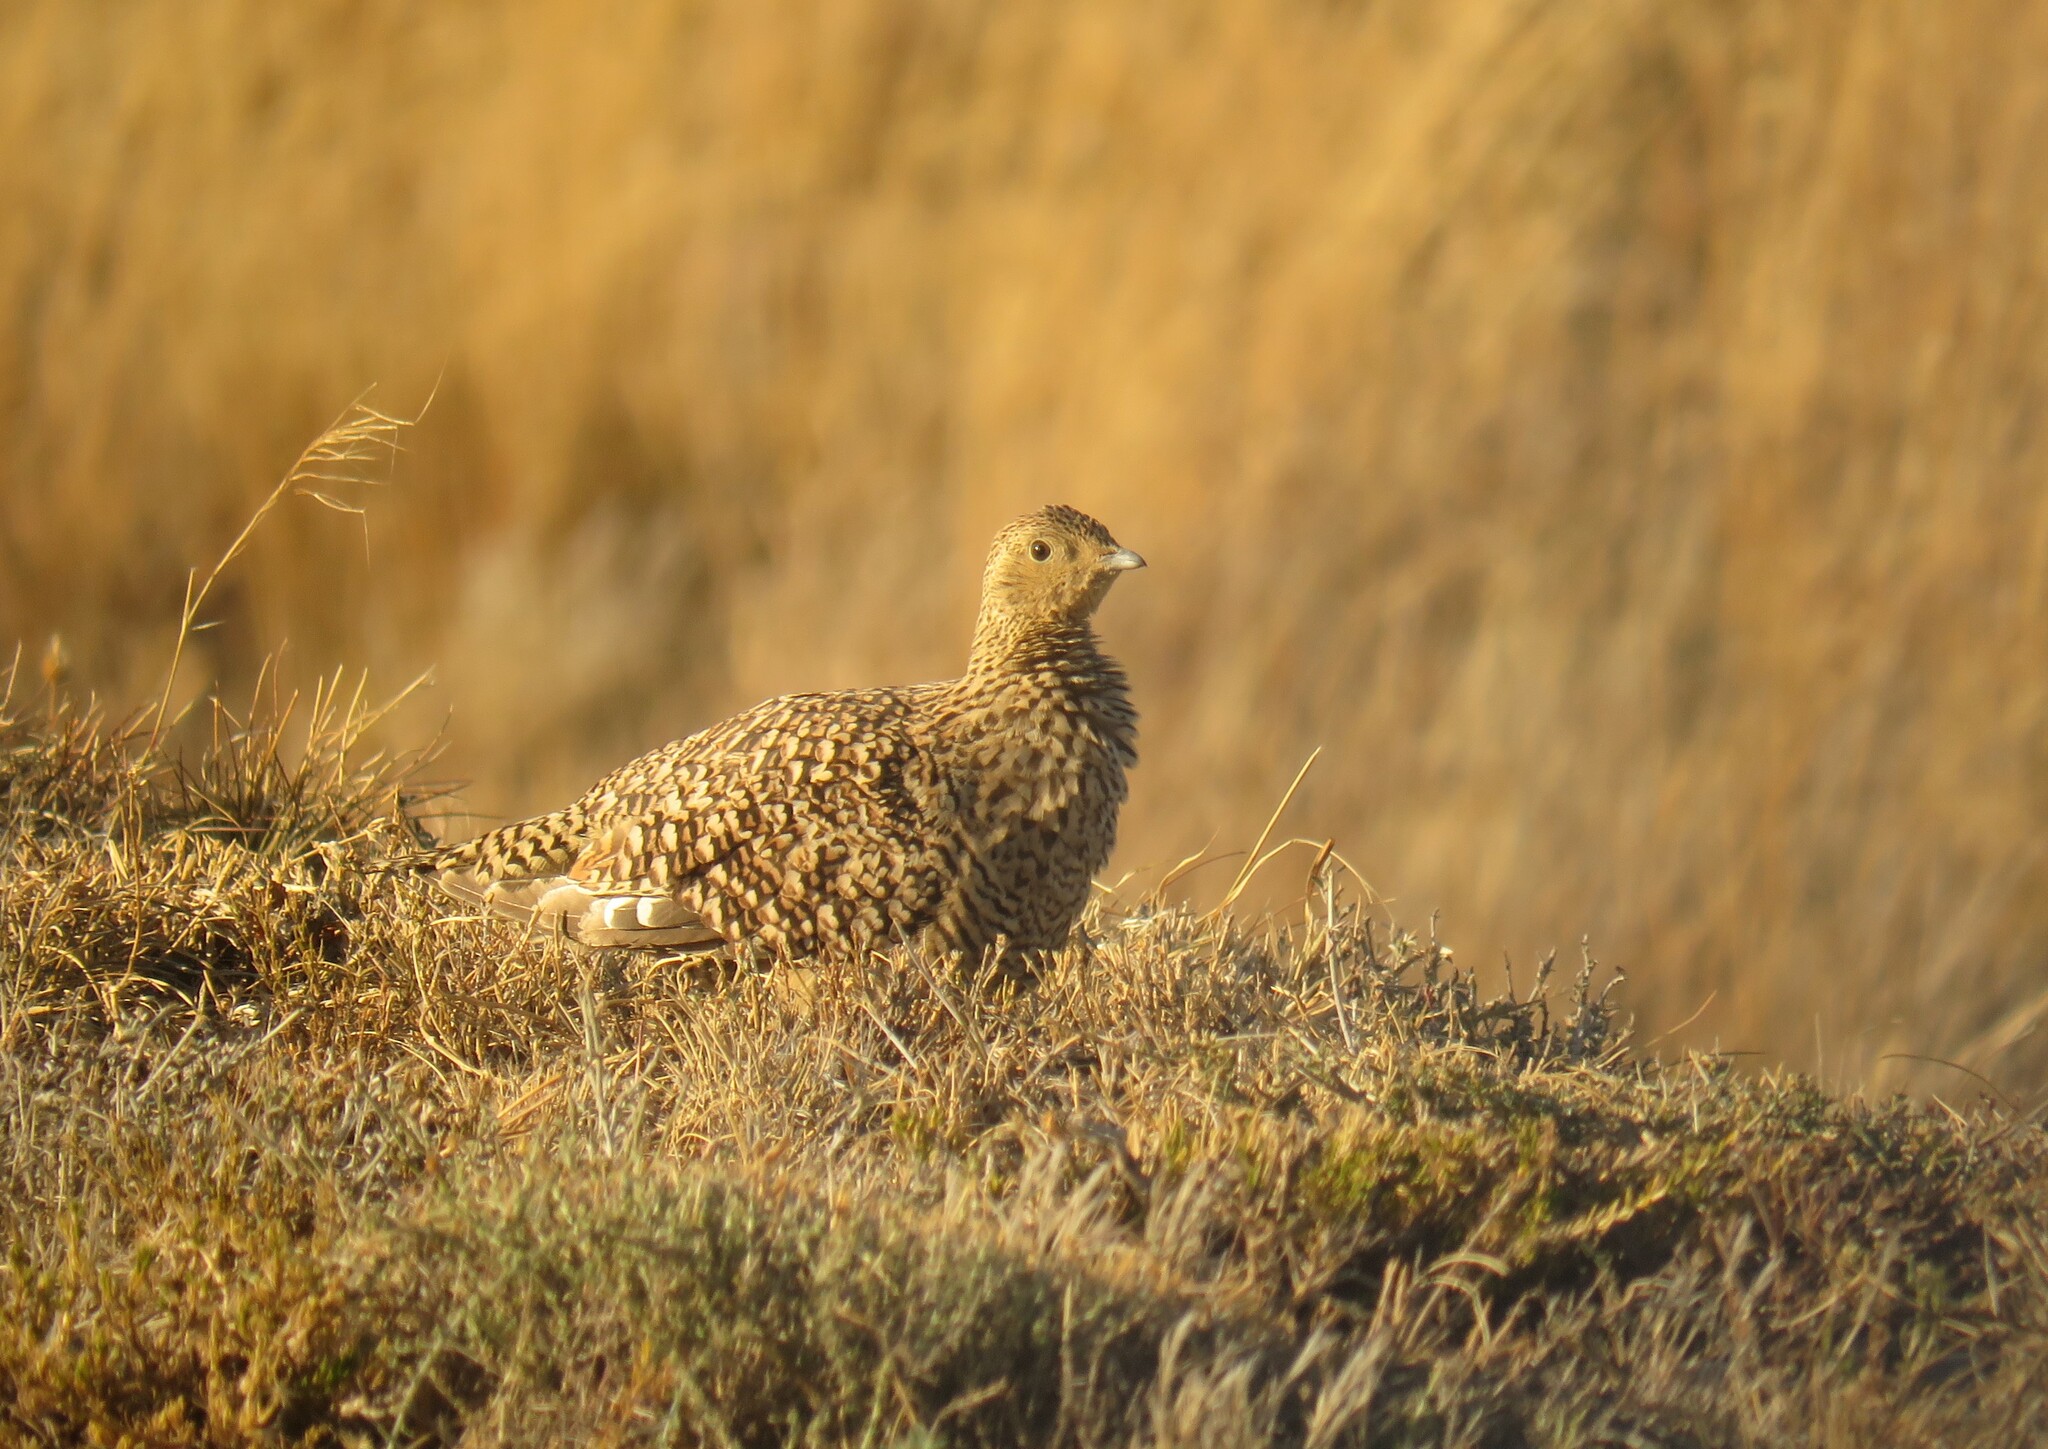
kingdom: Animalia
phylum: Chordata
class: Aves
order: Pteroclidiformes
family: Pteroclididae
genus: Pterocles
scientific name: Pterocles namaqua
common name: Namaqua sandgrouse
